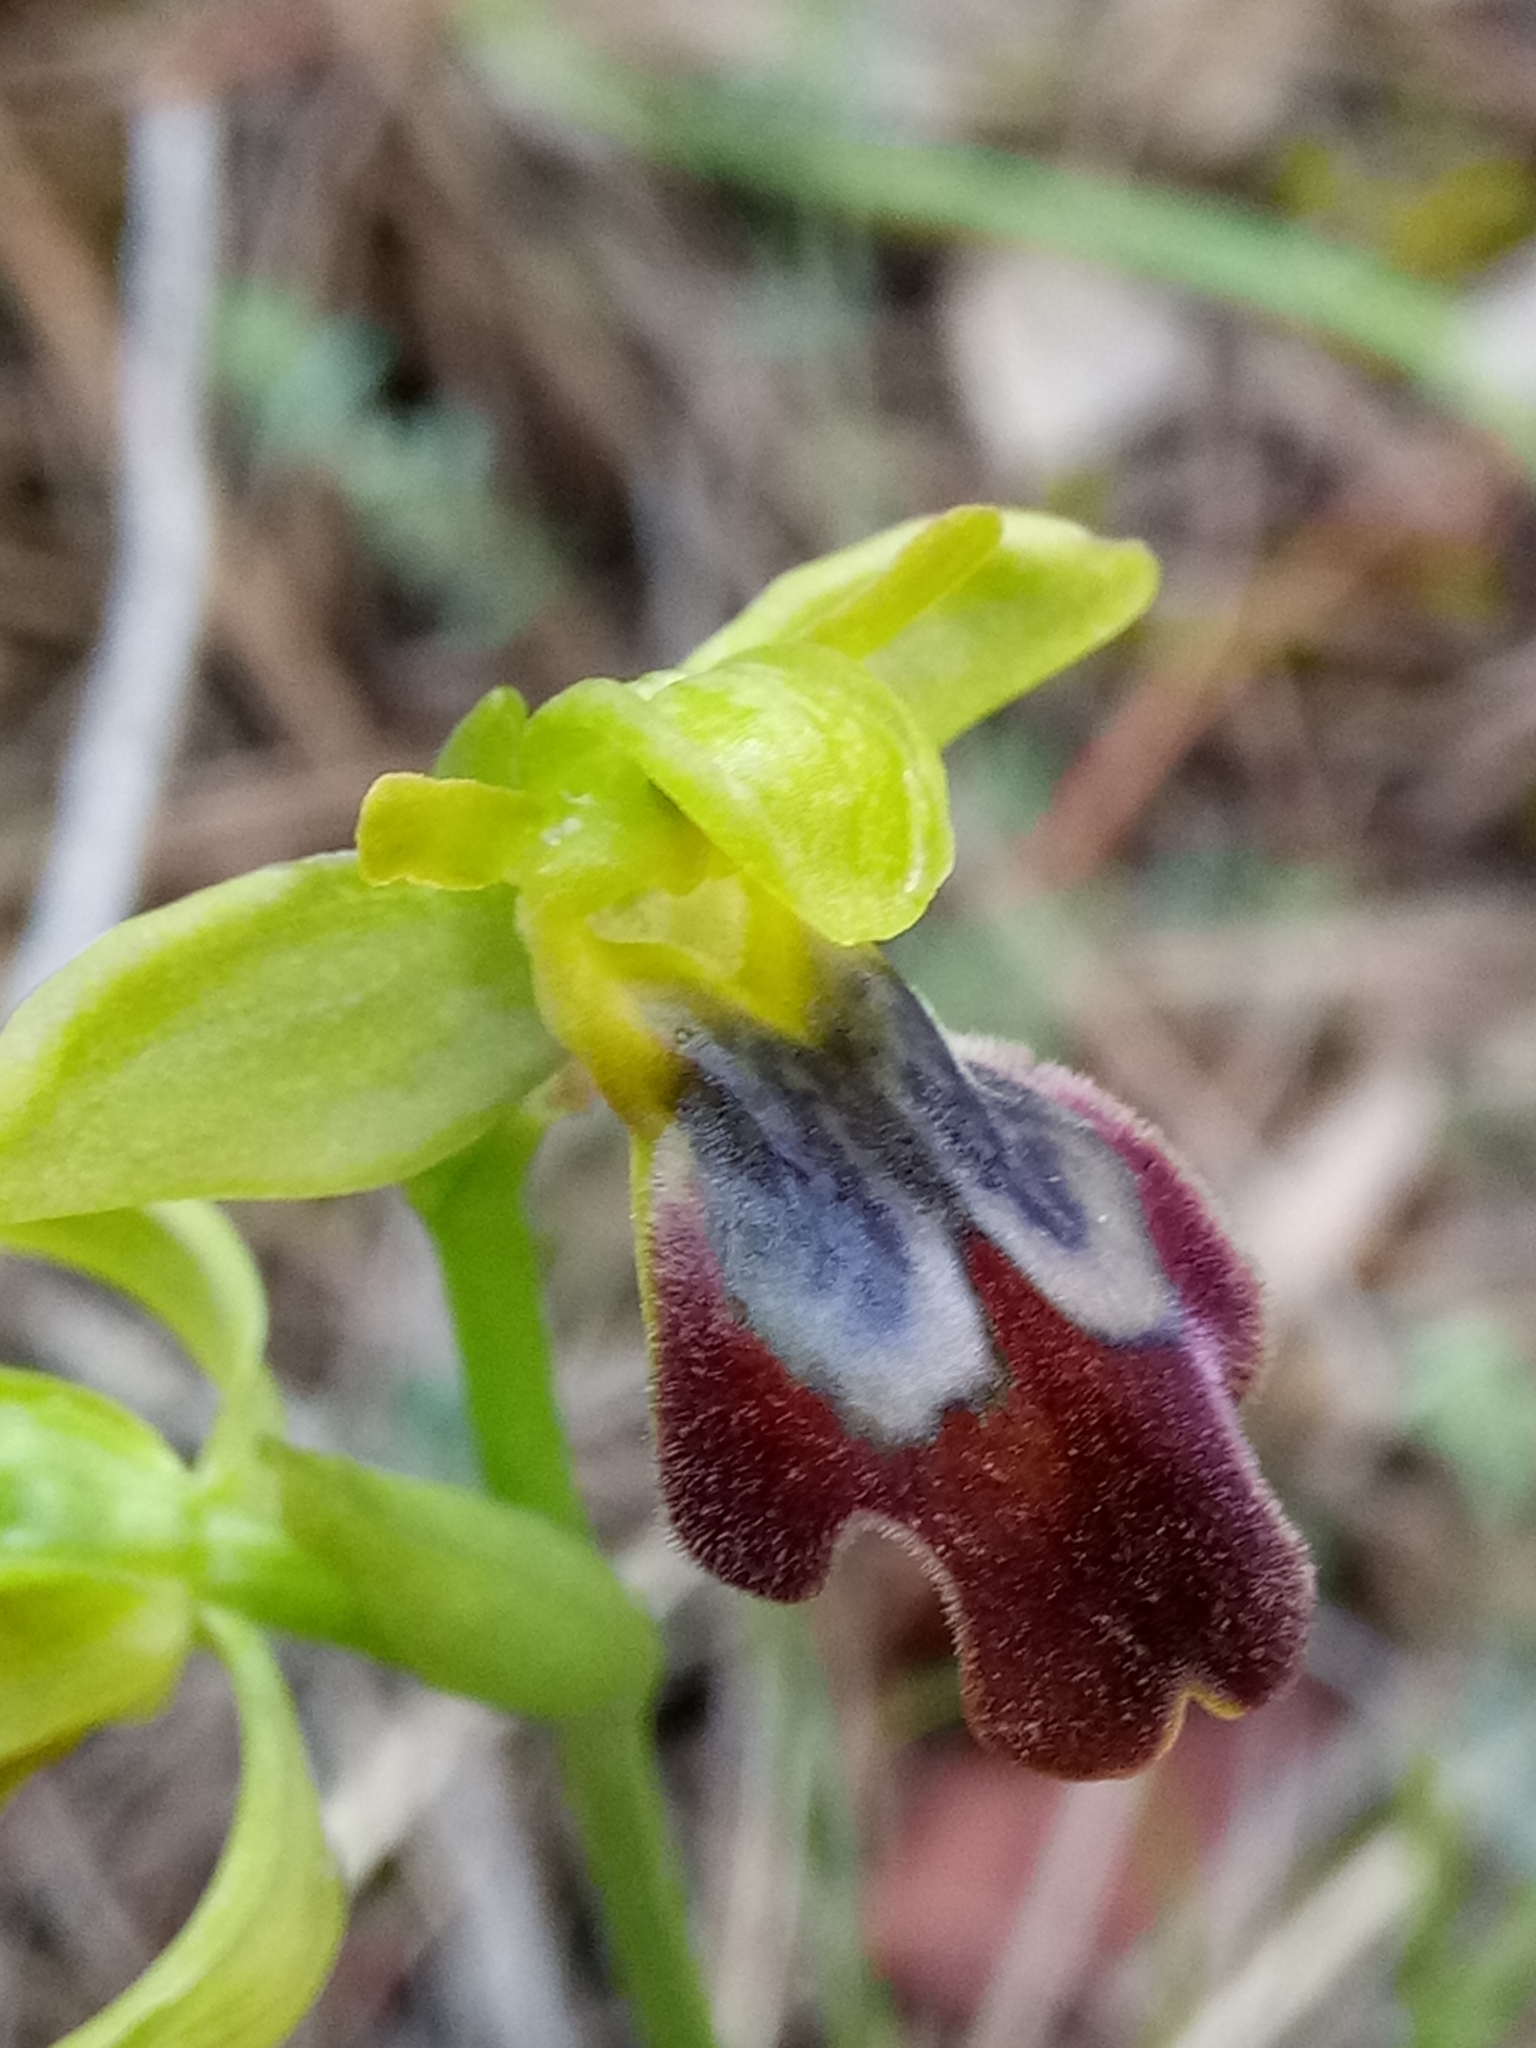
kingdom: Plantae
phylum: Tracheophyta
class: Liliopsida
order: Asparagales
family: Orchidaceae
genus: Ophrys
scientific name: Ophrys fusca
